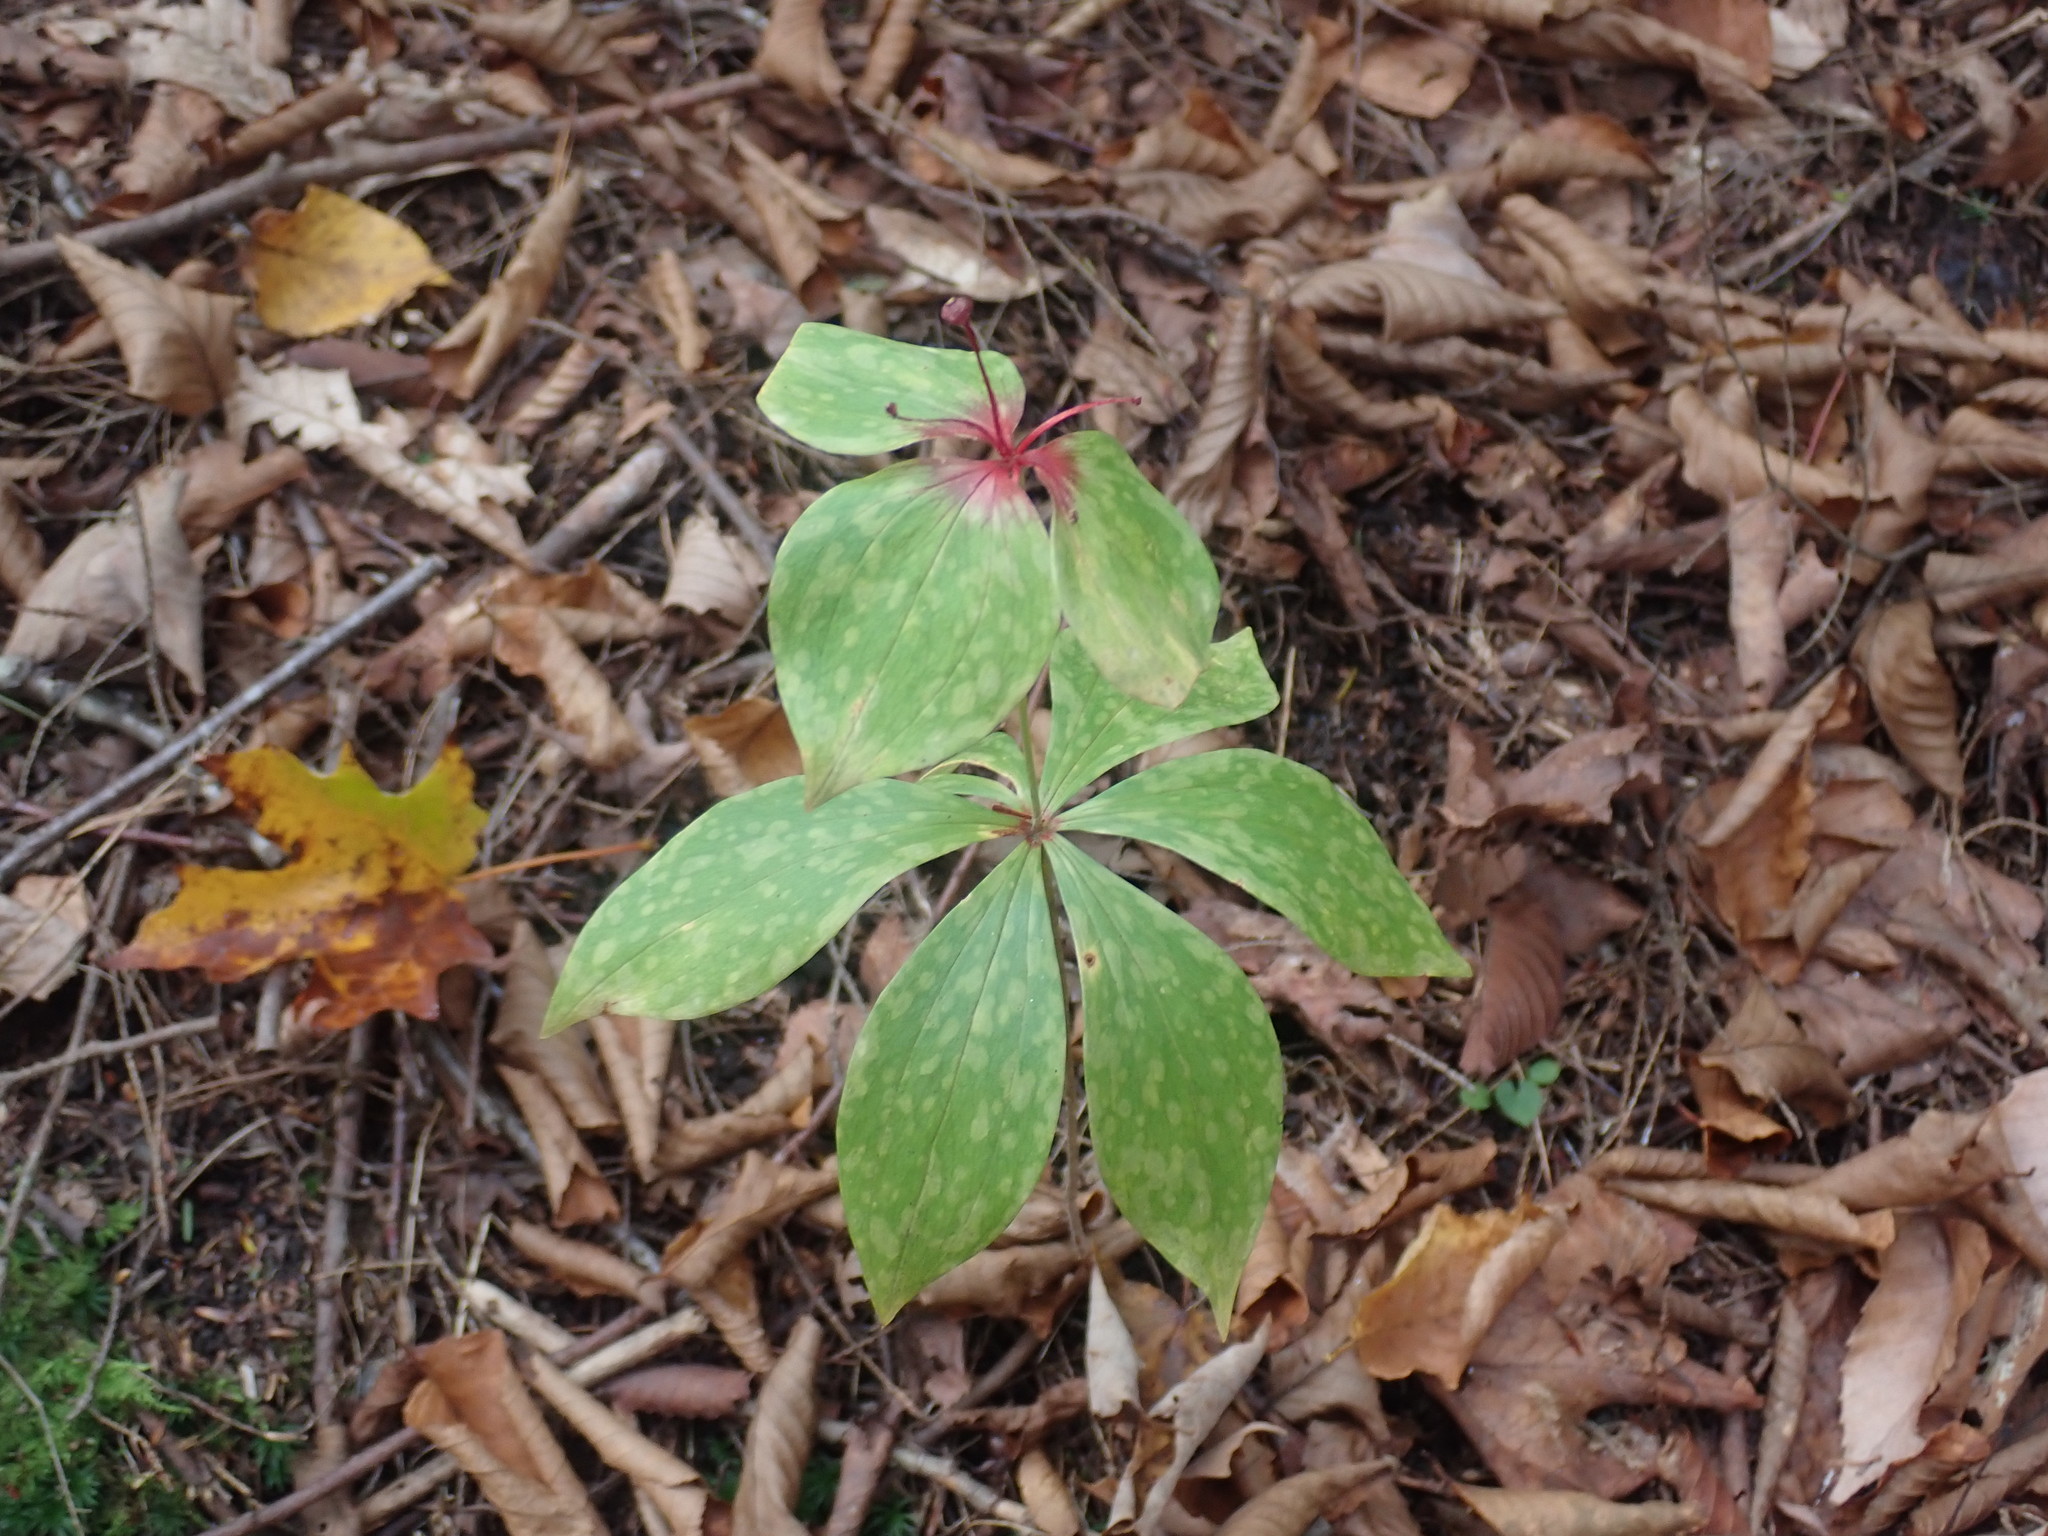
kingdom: Plantae
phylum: Tracheophyta
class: Liliopsida
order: Liliales
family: Liliaceae
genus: Medeola
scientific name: Medeola virginiana
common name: Indian cucumber-root
